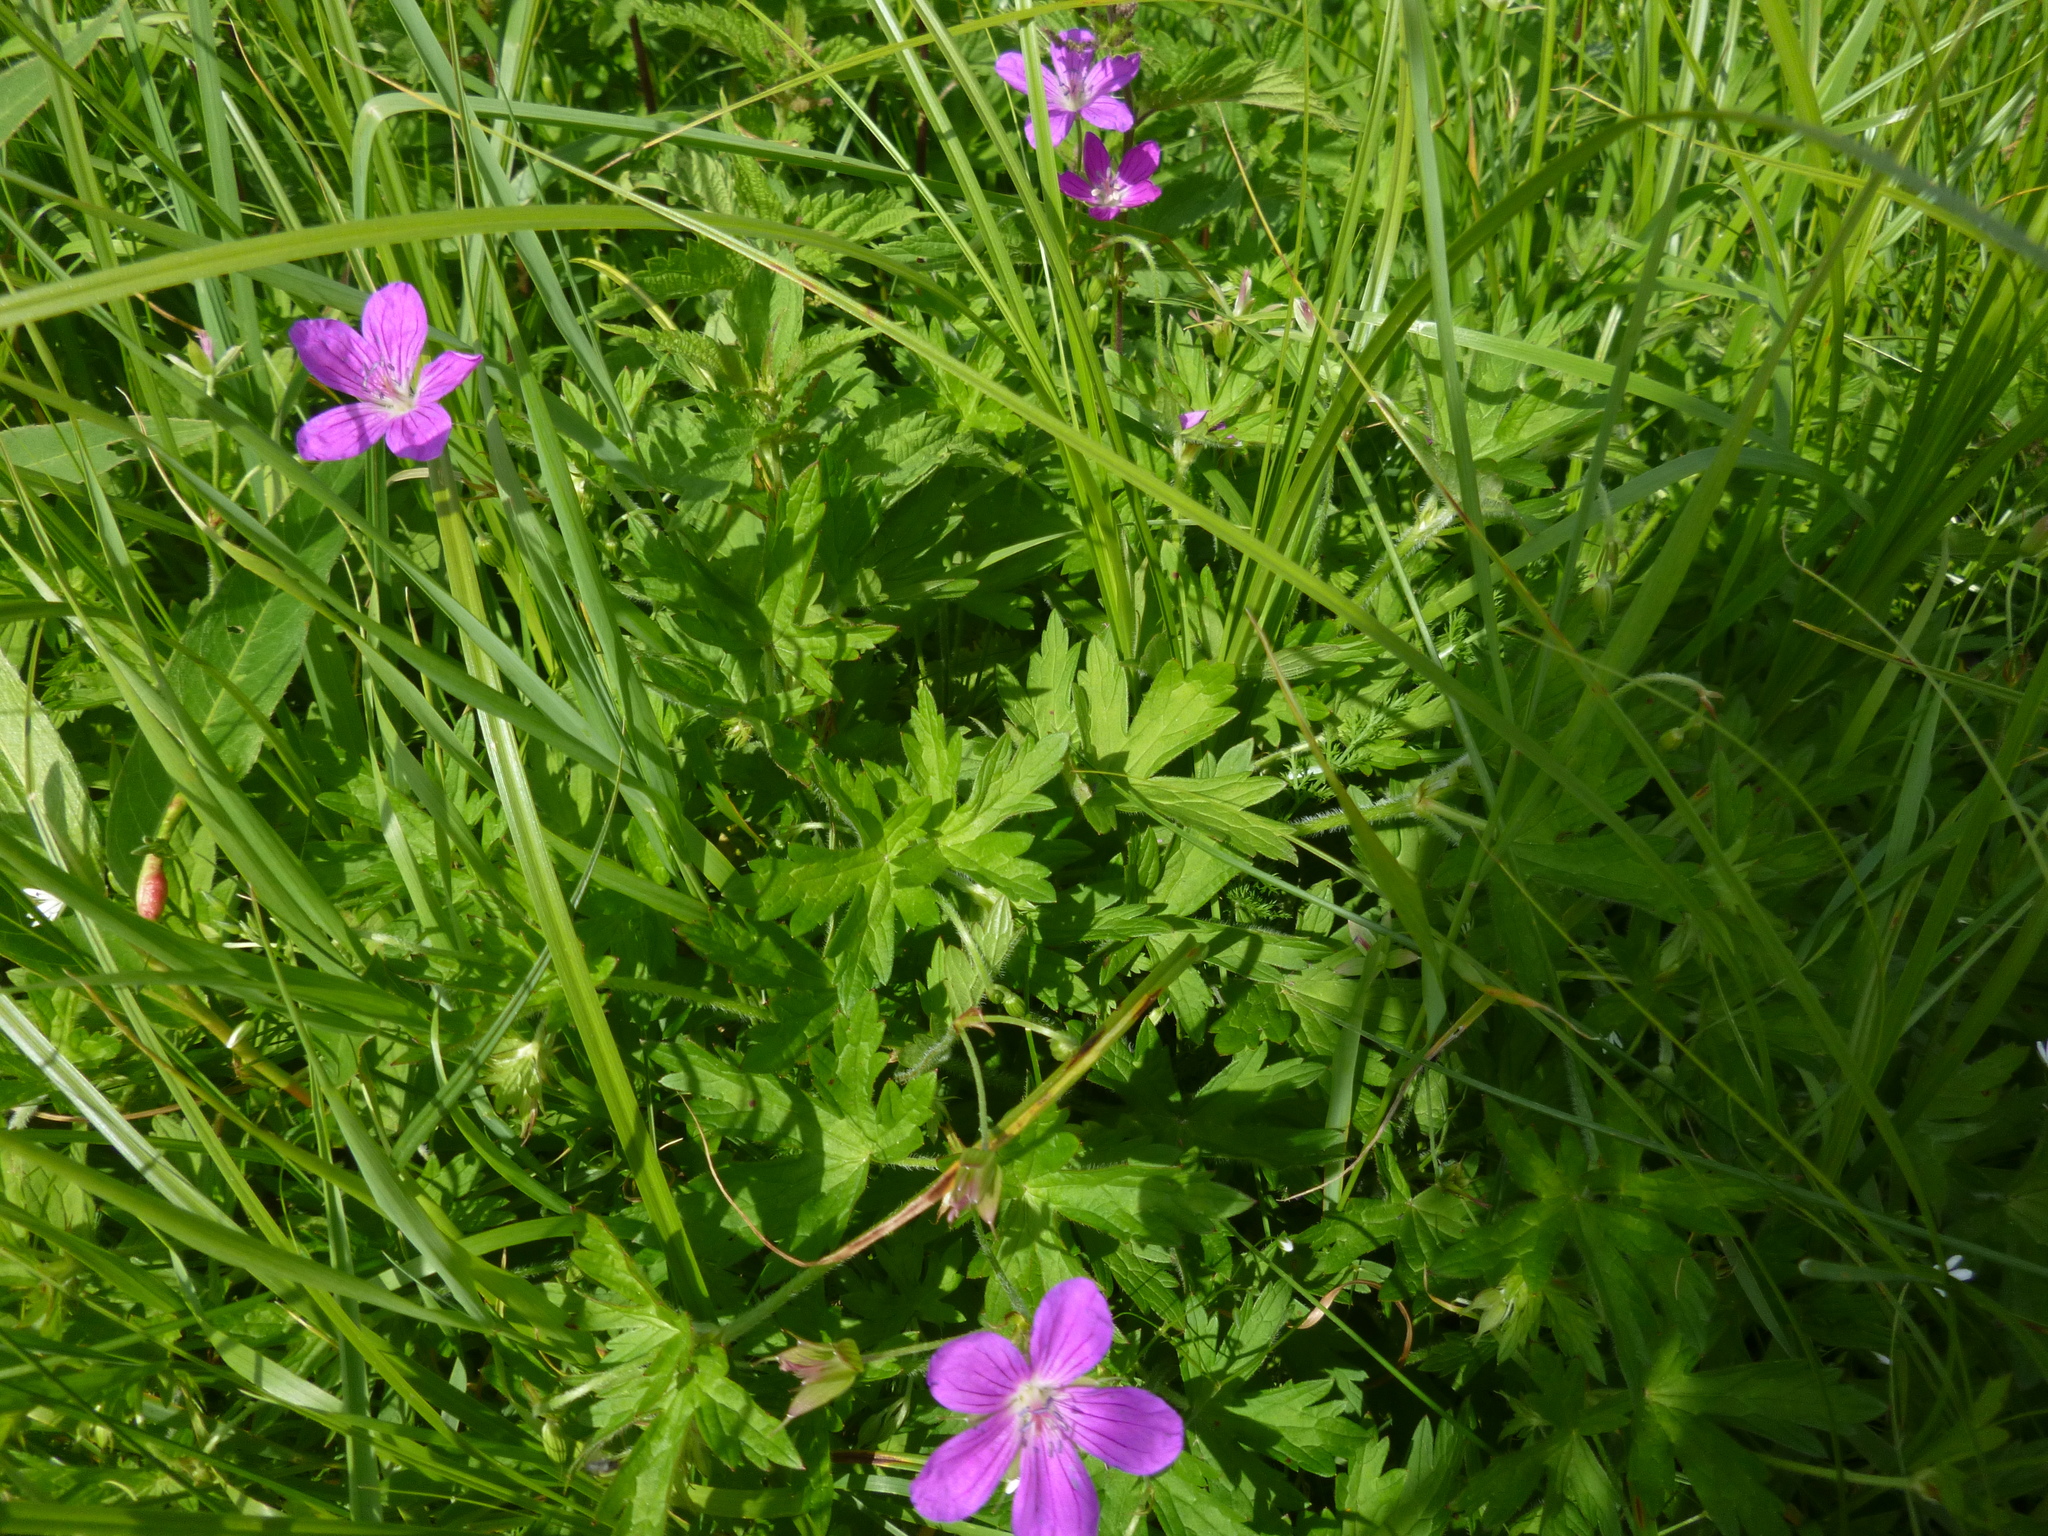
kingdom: Plantae
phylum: Tracheophyta
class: Magnoliopsida
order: Geraniales
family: Geraniaceae
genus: Geranium
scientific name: Geranium palustre
